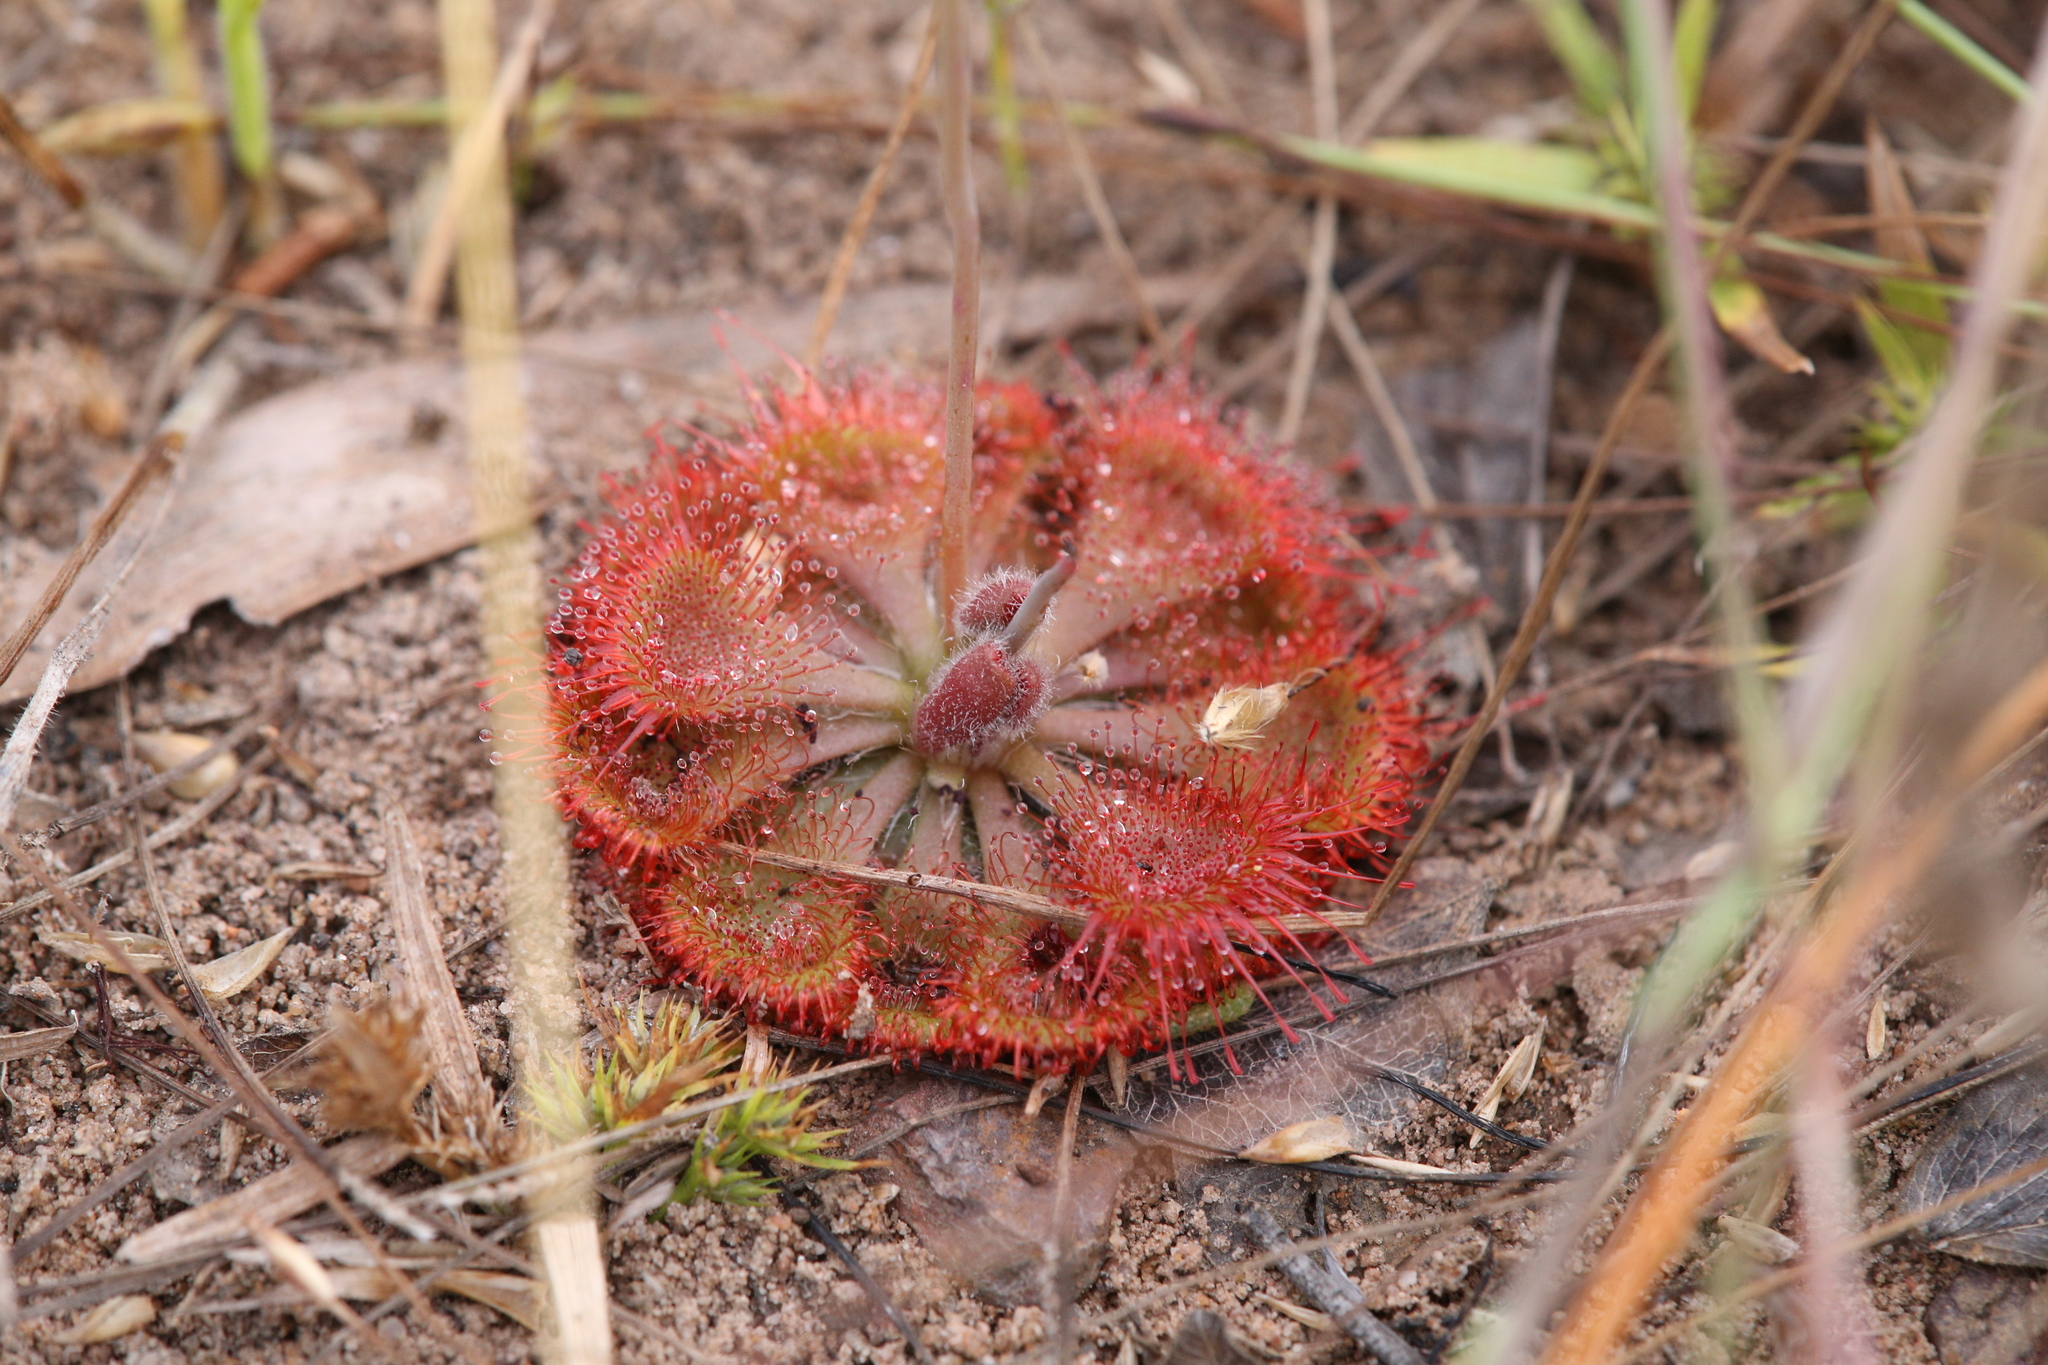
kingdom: Plantae
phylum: Tracheophyta
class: Magnoliopsida
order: Caryophyllales
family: Droseraceae
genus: Drosera
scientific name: Drosera spatulata
